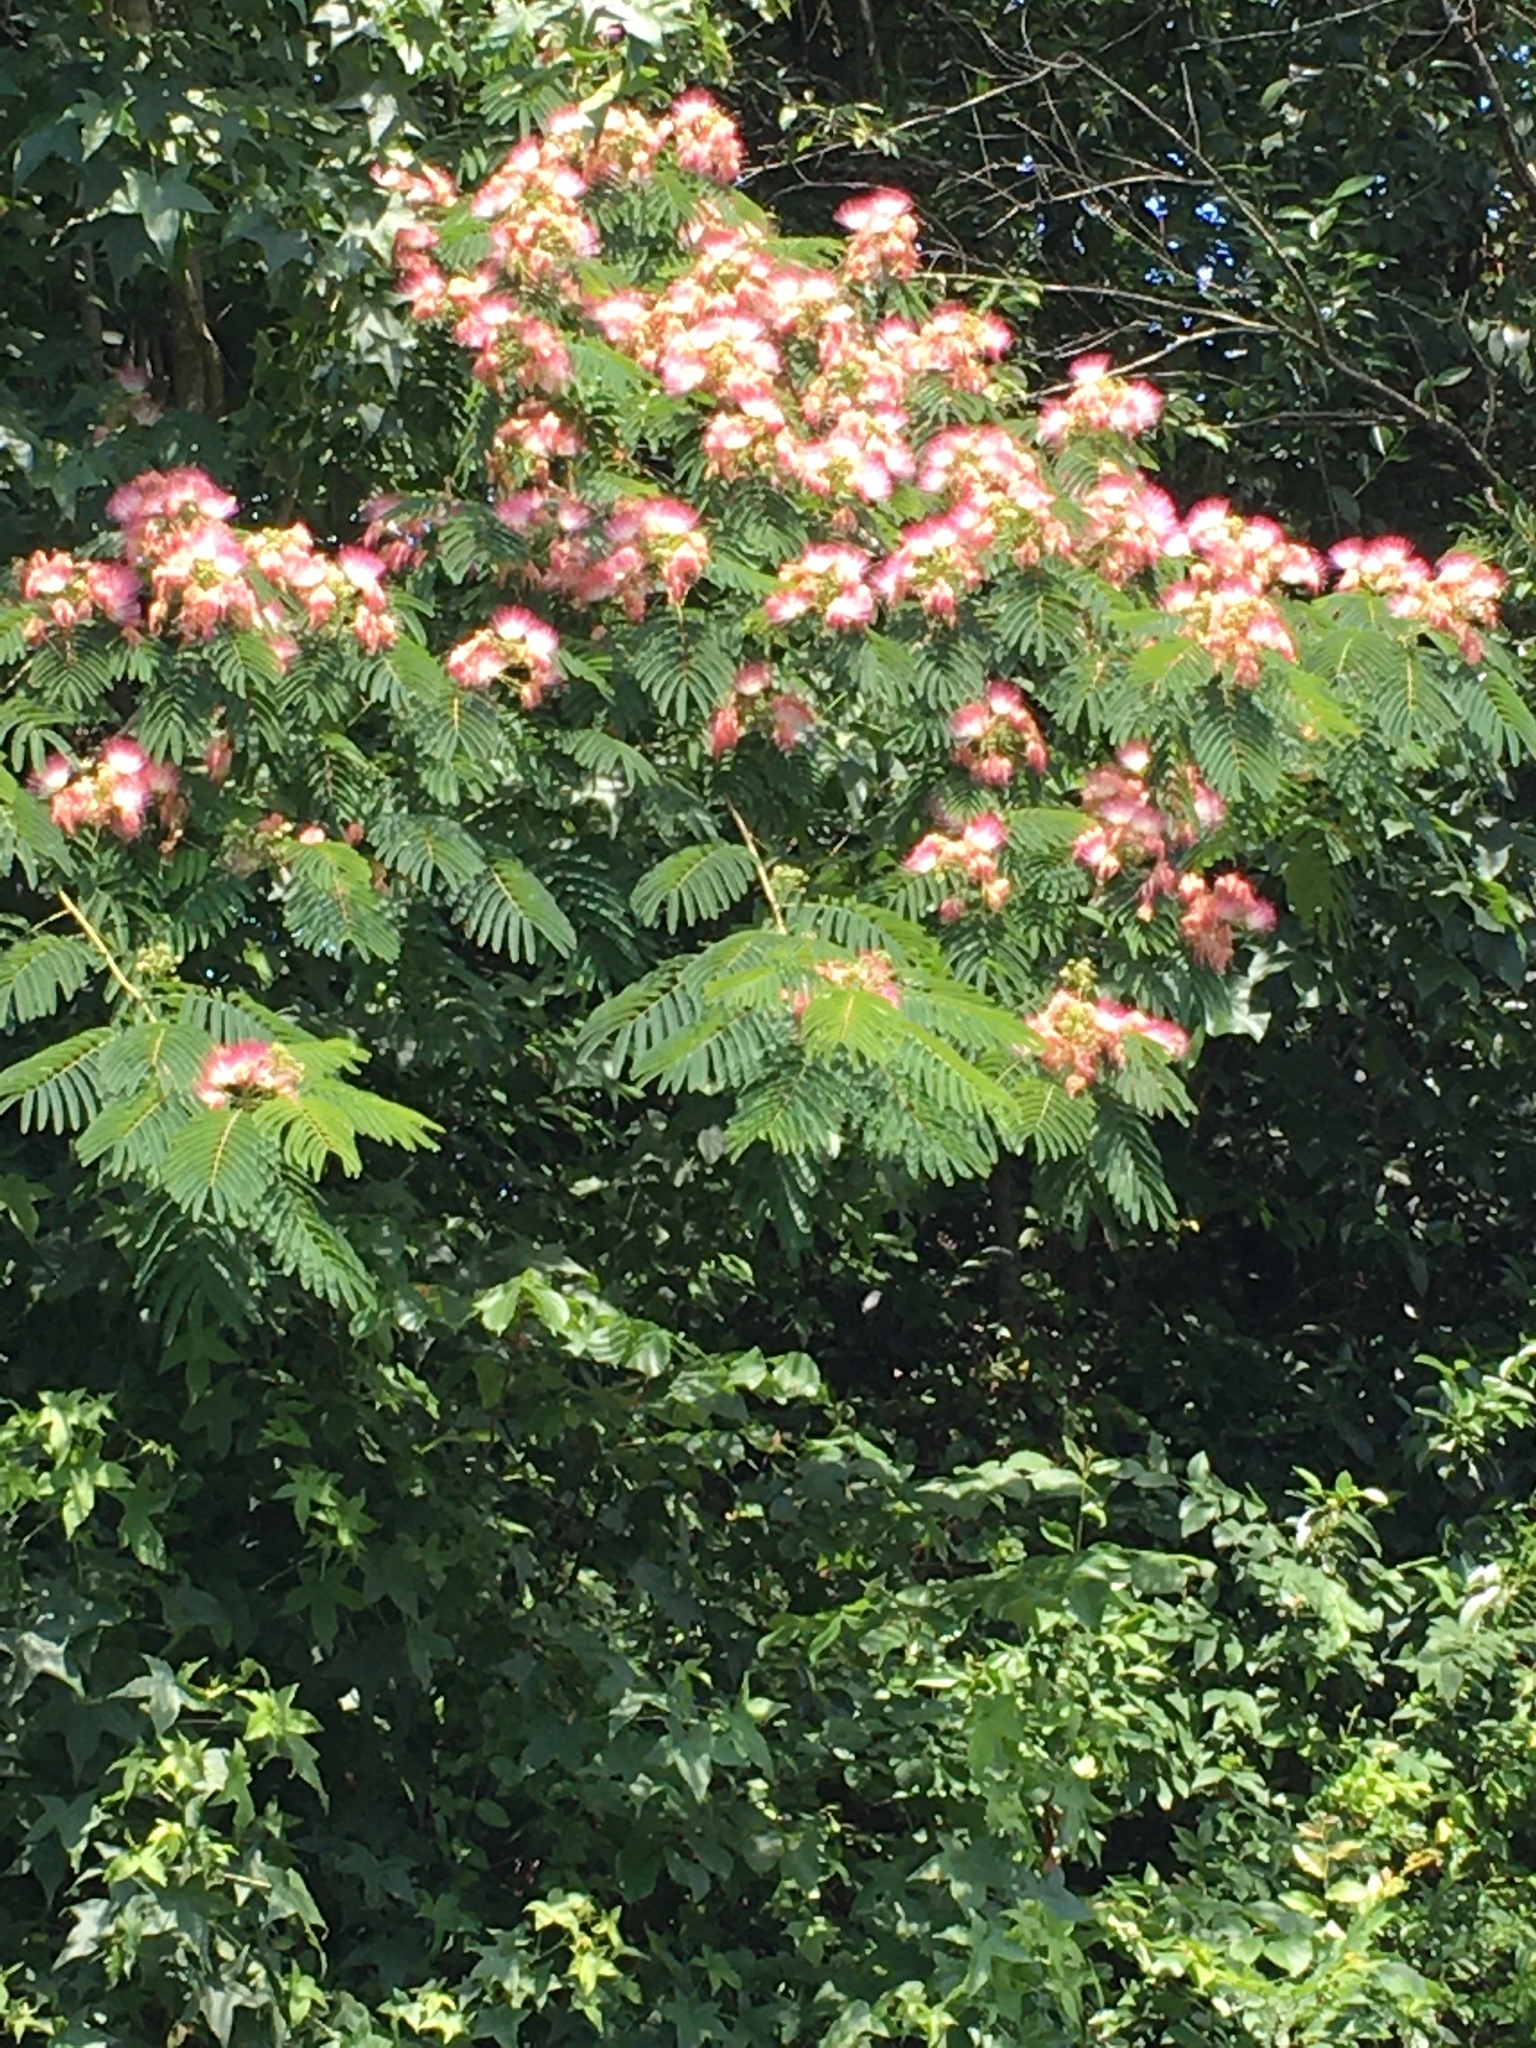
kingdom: Plantae
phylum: Tracheophyta
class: Magnoliopsida
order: Fabales
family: Fabaceae
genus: Albizia
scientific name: Albizia julibrissin
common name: Silktree
